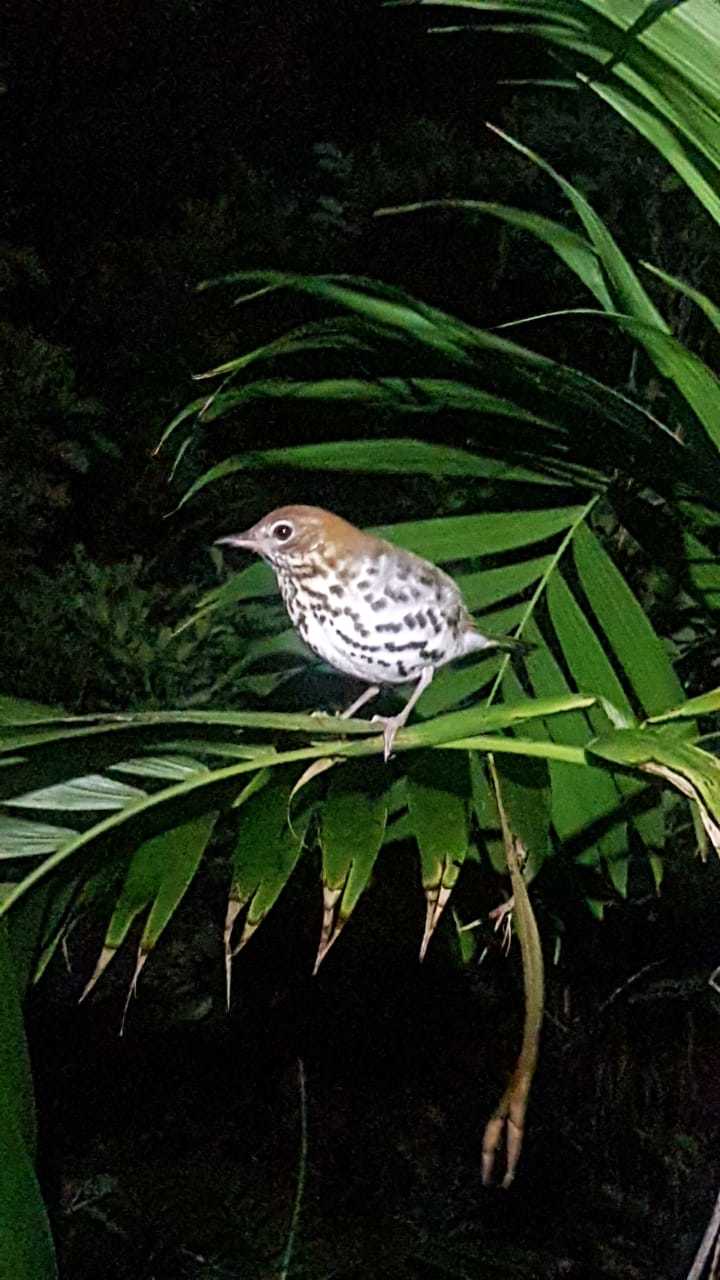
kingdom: Animalia
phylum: Chordata
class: Aves
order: Passeriformes
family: Turdidae
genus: Hylocichla
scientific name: Hylocichla mustelina
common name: Wood thrush
